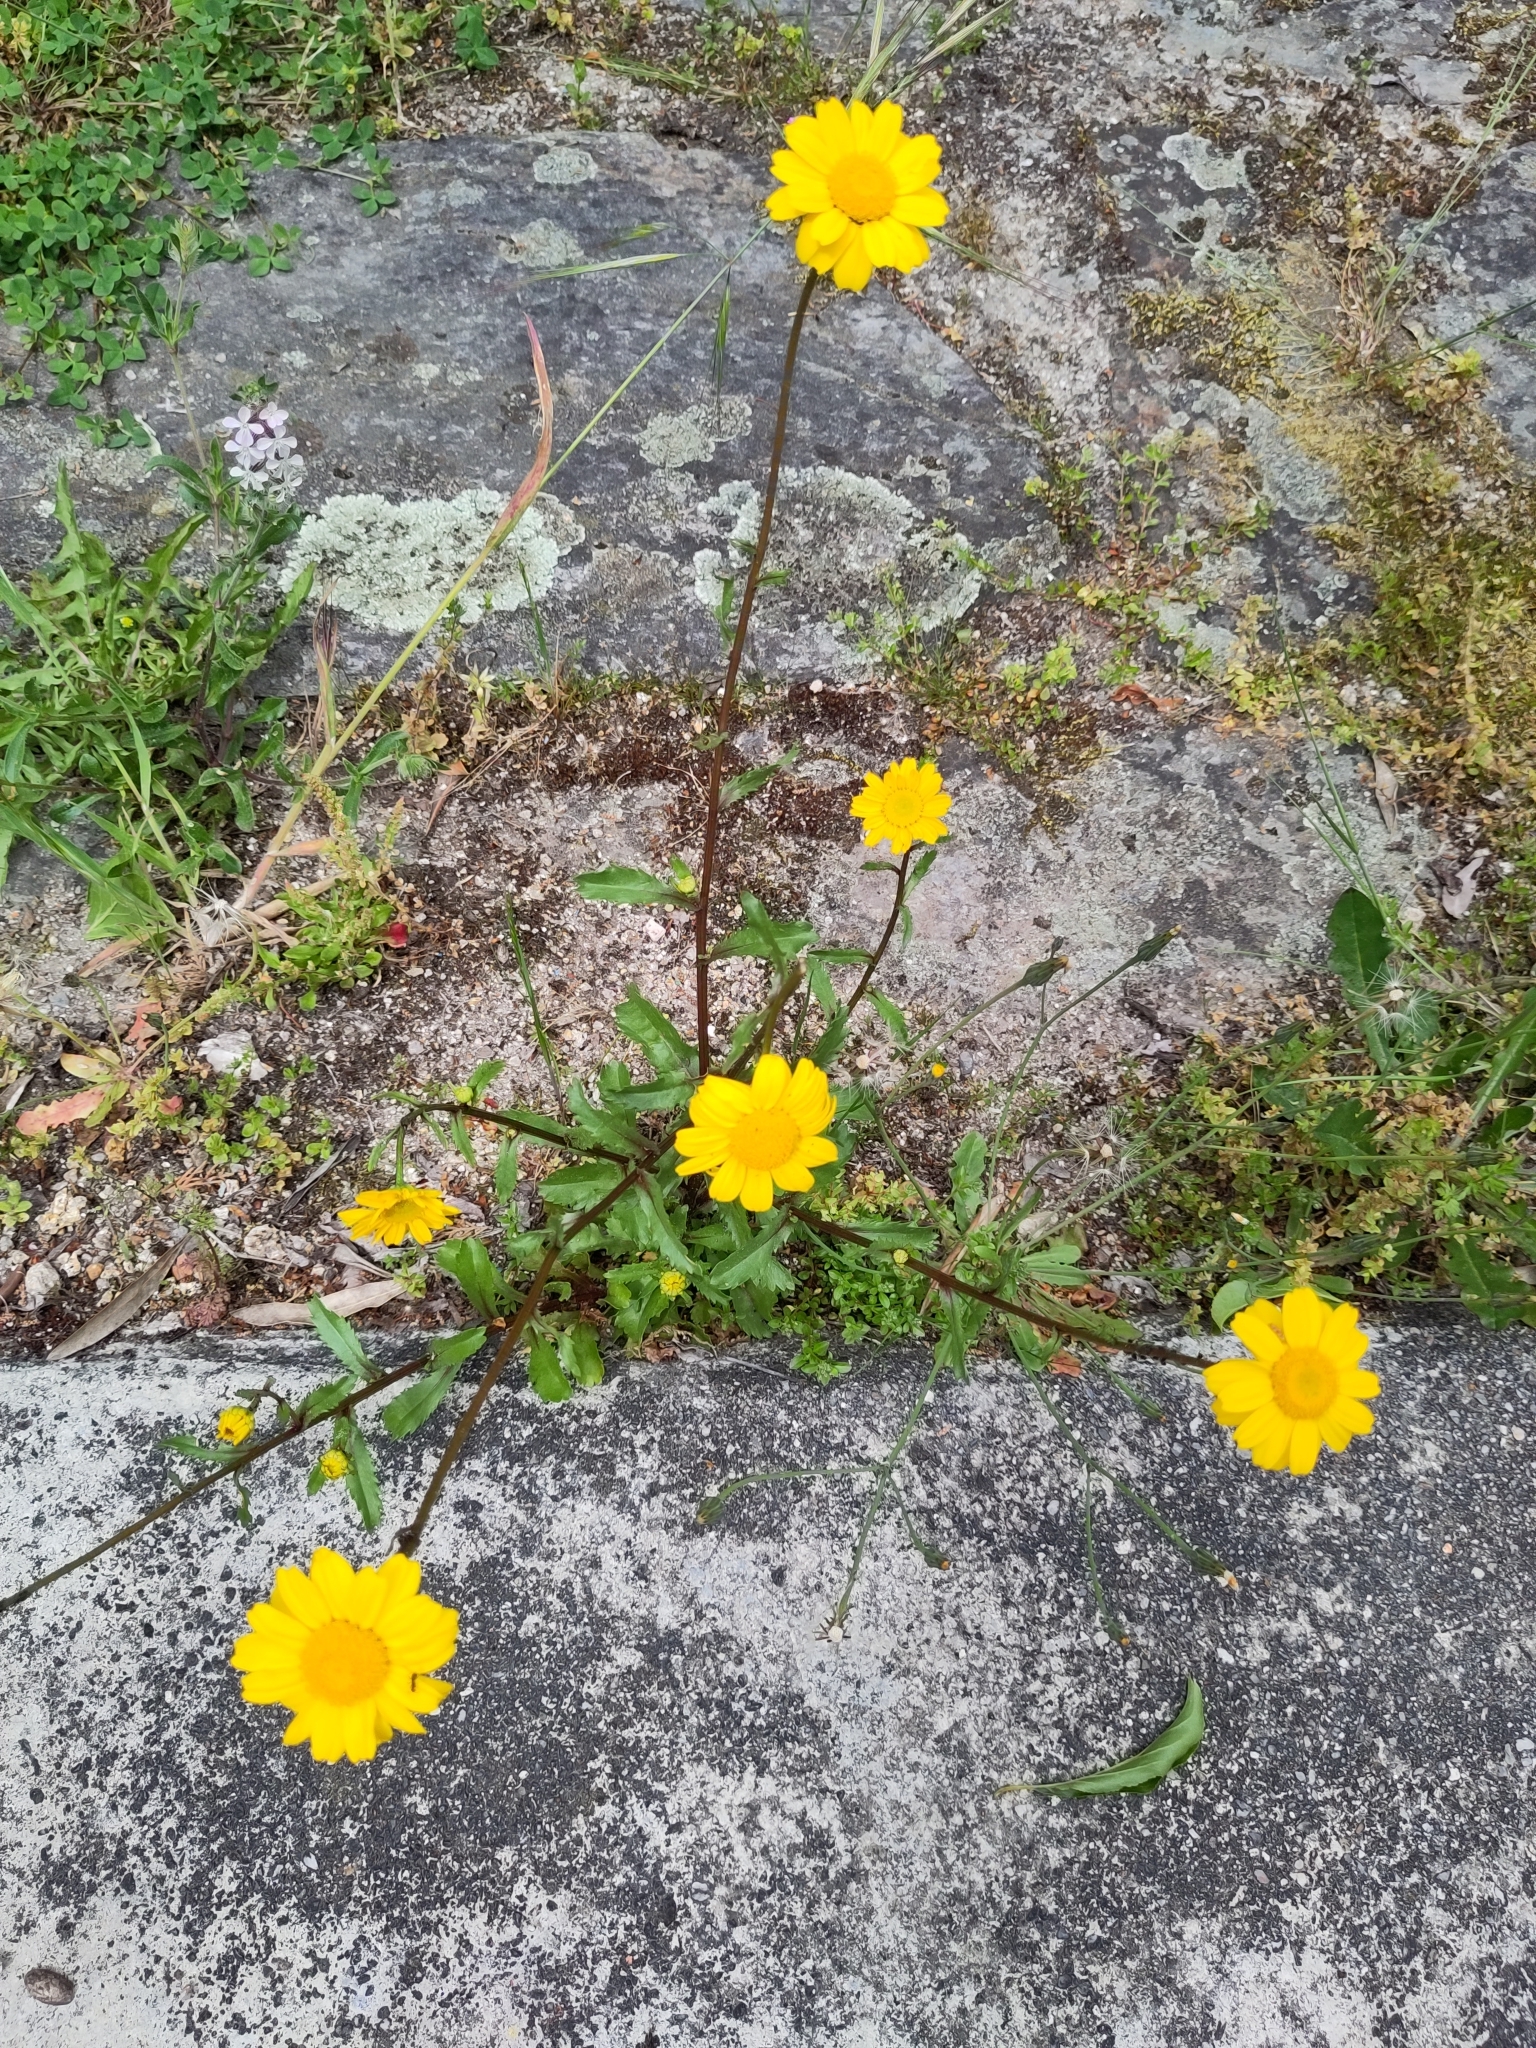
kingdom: Plantae
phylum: Tracheophyta
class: Magnoliopsida
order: Asterales
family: Asteraceae
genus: Coleostephus
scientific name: Coleostephus myconis
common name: Mediterranean marigold
